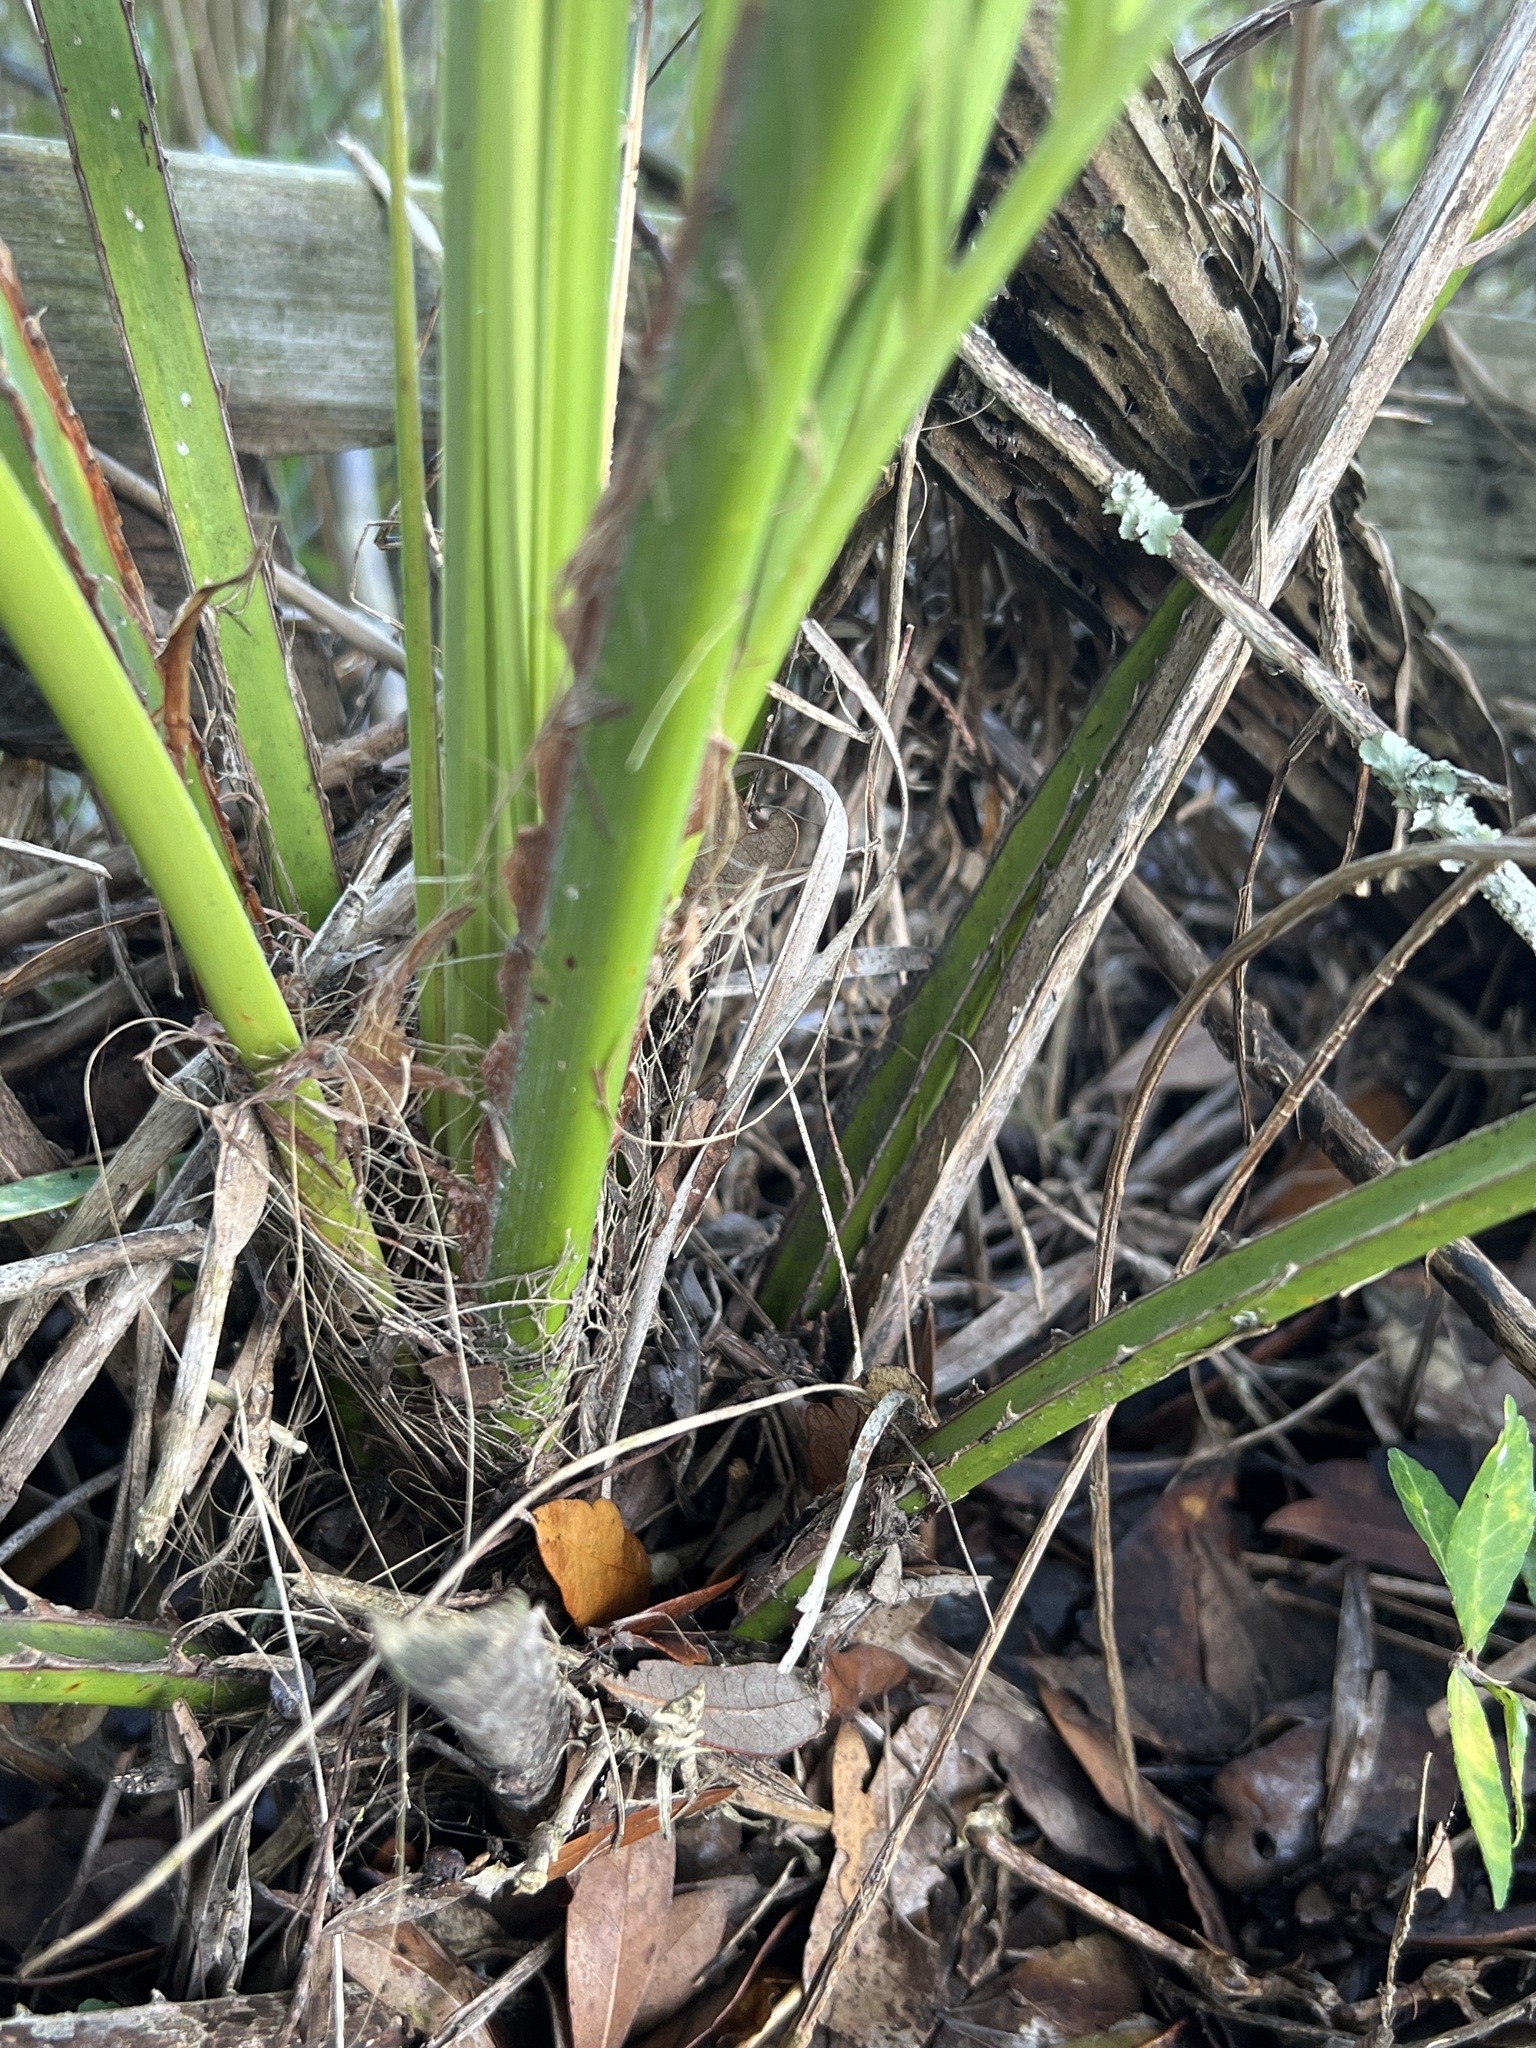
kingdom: Plantae
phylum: Tracheophyta
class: Liliopsida
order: Arecales
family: Arecaceae
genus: Butia
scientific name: Butia odorata
